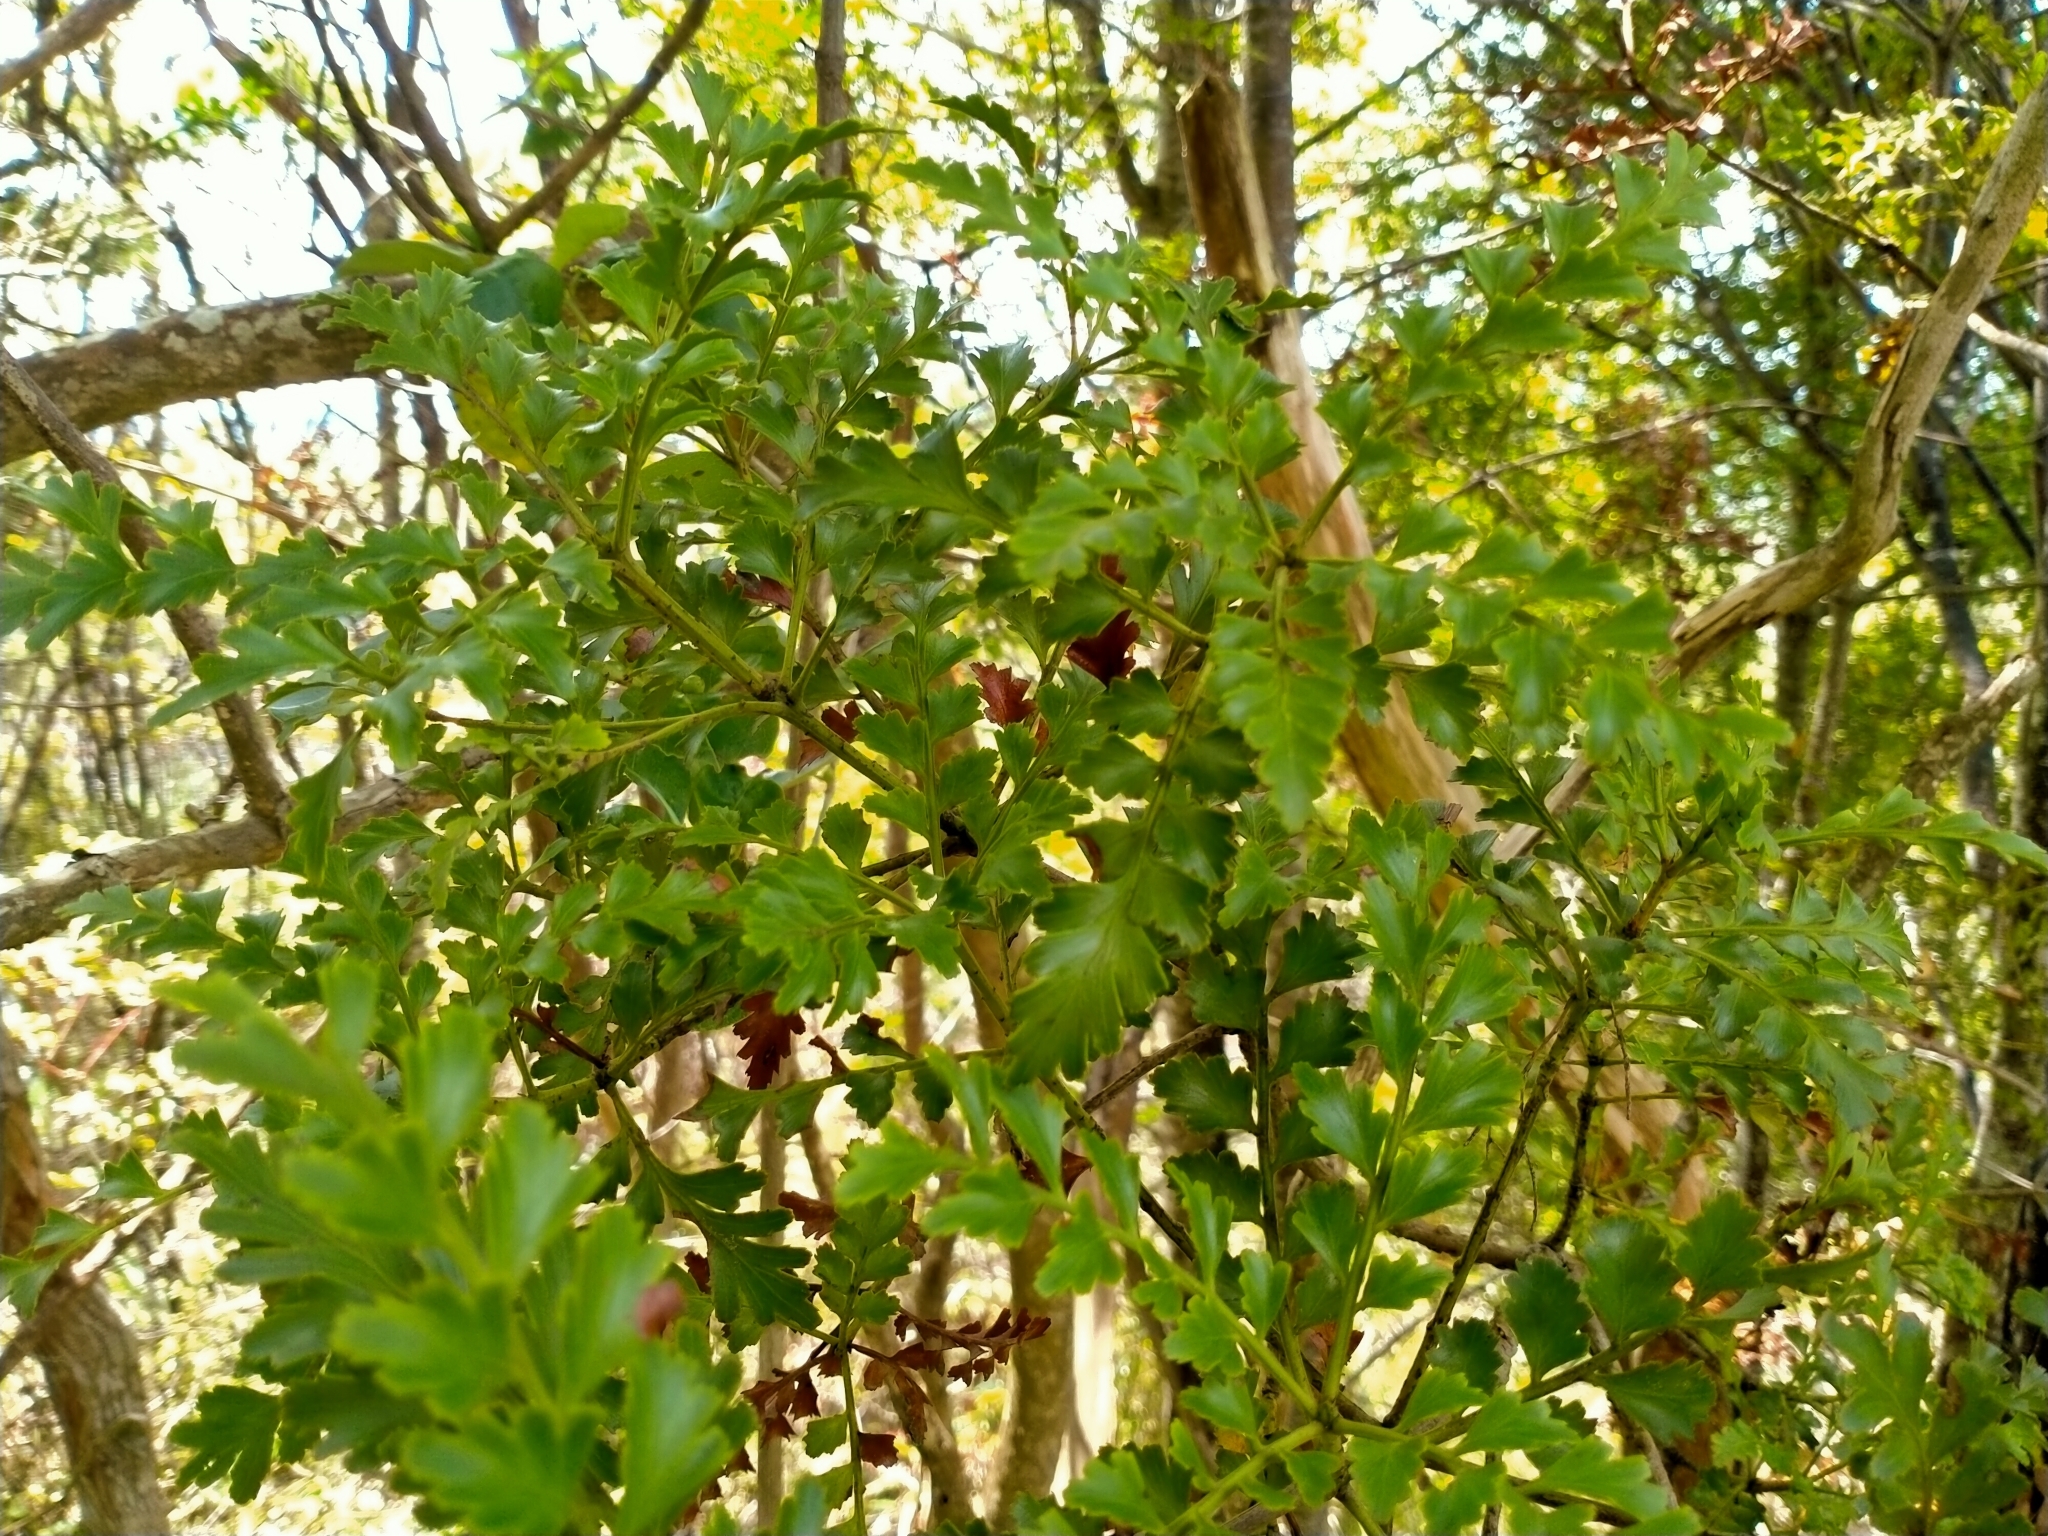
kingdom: Plantae
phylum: Tracheophyta
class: Pinopsida
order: Pinales
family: Phyllocladaceae
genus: Phyllocladus
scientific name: Phyllocladus trichomanoides
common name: Celery pine
